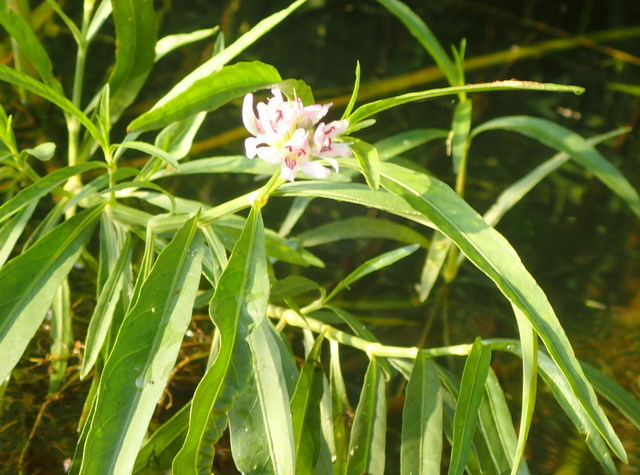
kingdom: Plantae
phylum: Tracheophyta
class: Magnoliopsida
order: Lamiales
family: Acanthaceae
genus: Dianthera
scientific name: Dianthera americana
